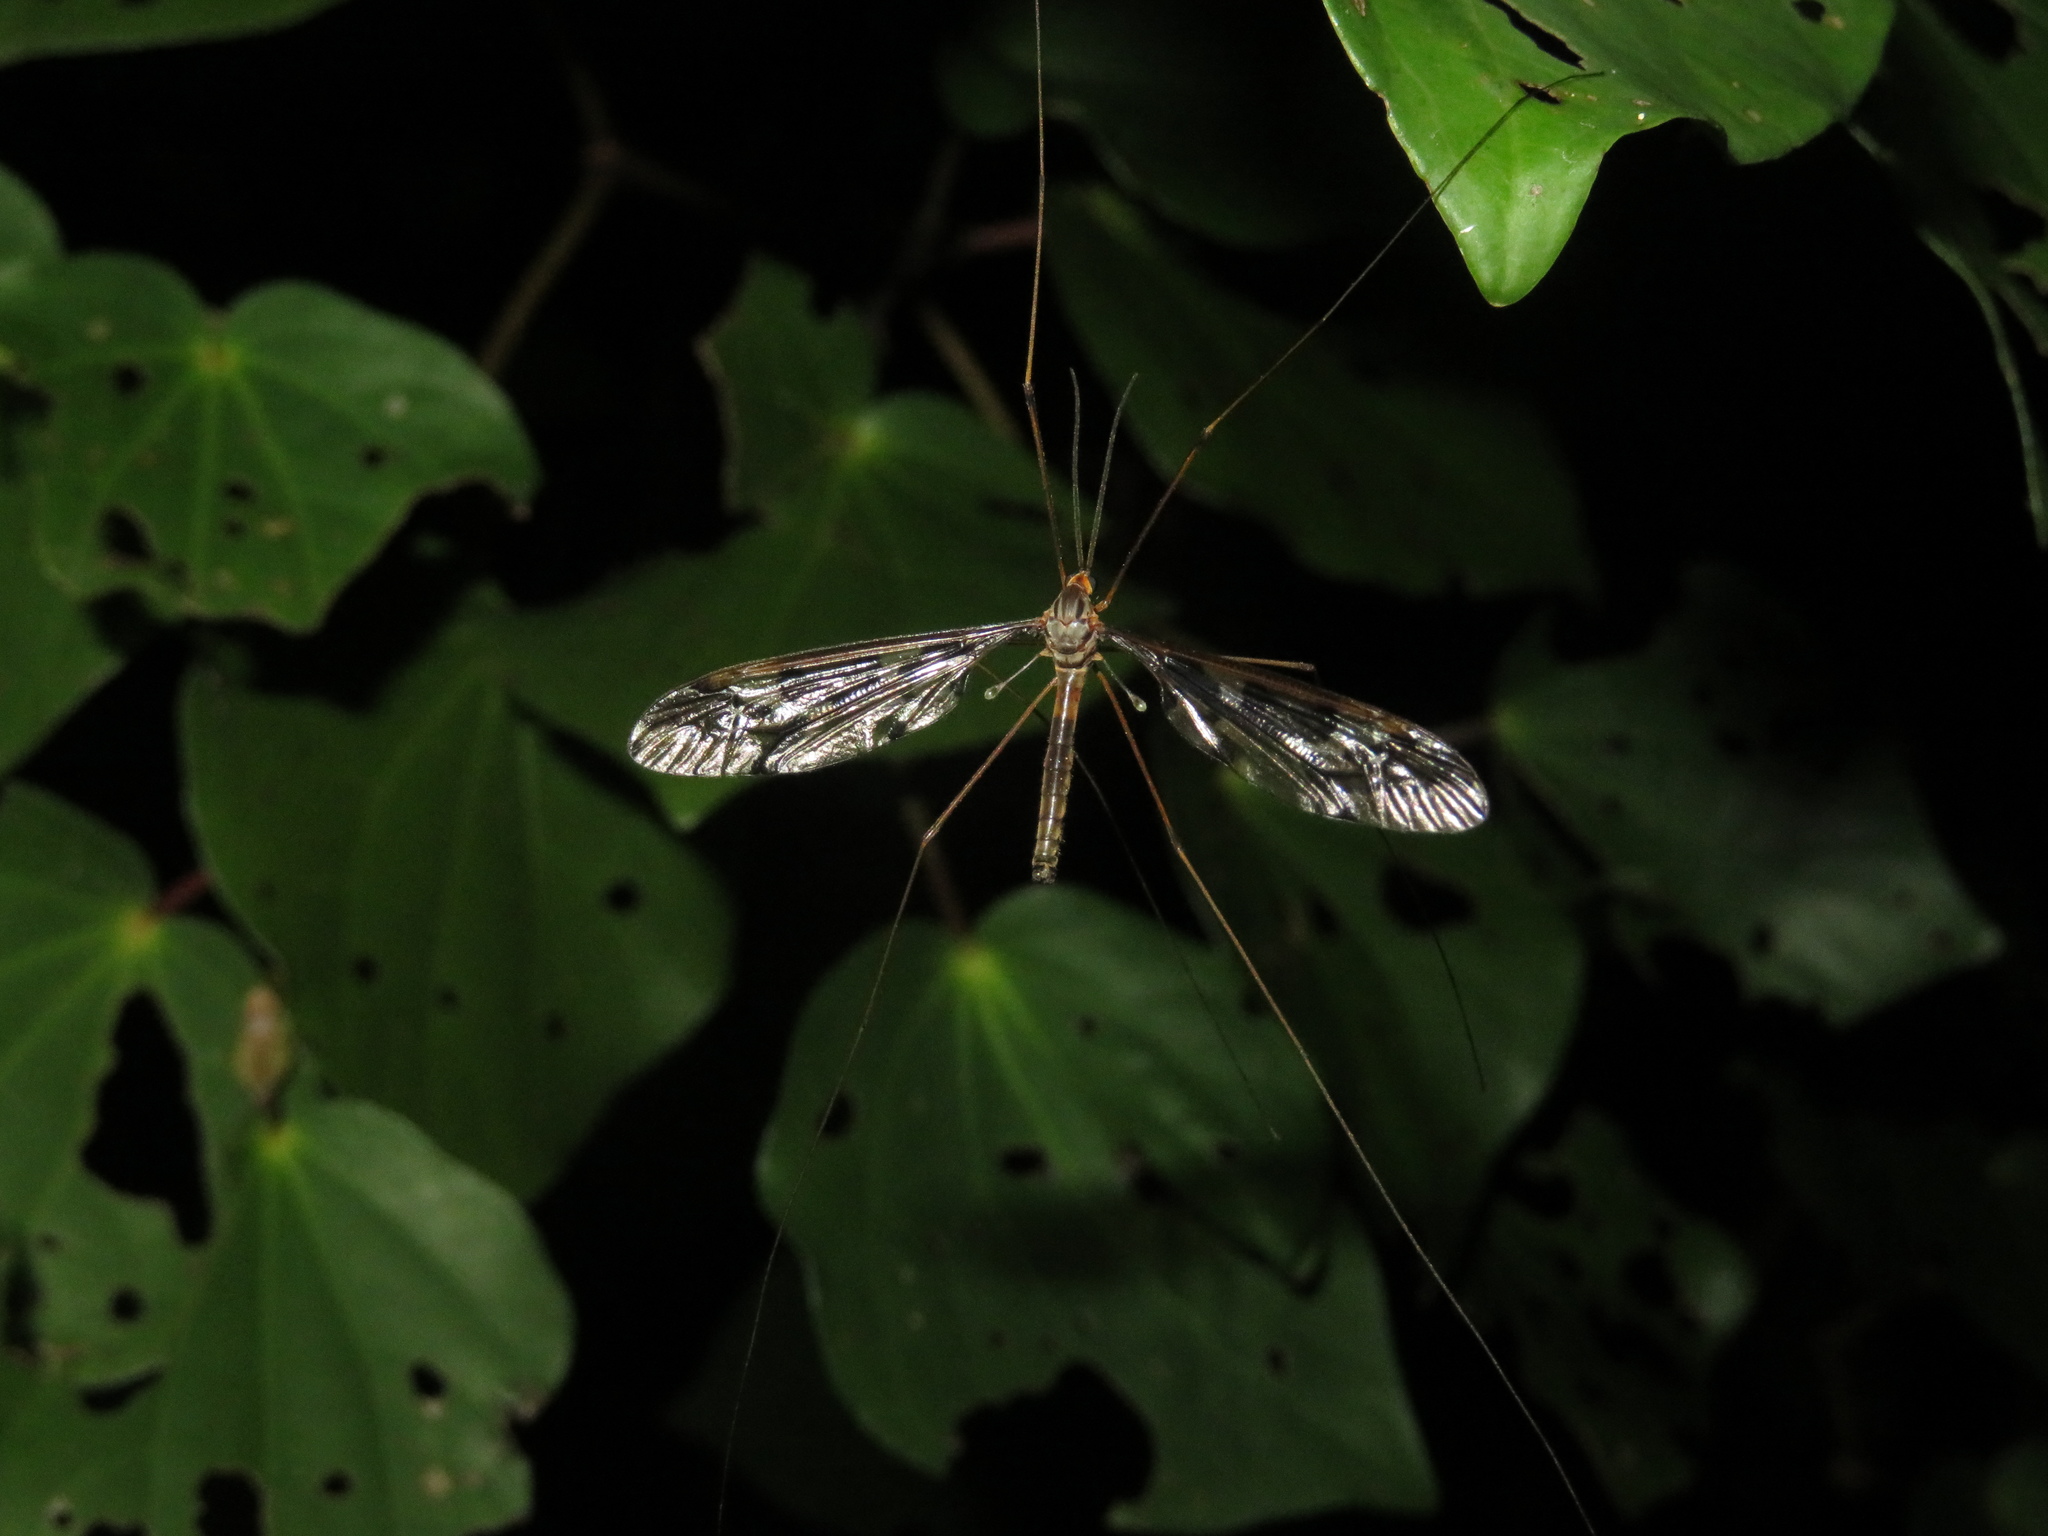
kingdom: Animalia
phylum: Arthropoda
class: Insecta
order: Diptera
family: Tipulidae
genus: Leptotarsus
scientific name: Leptotarsus binotatus
